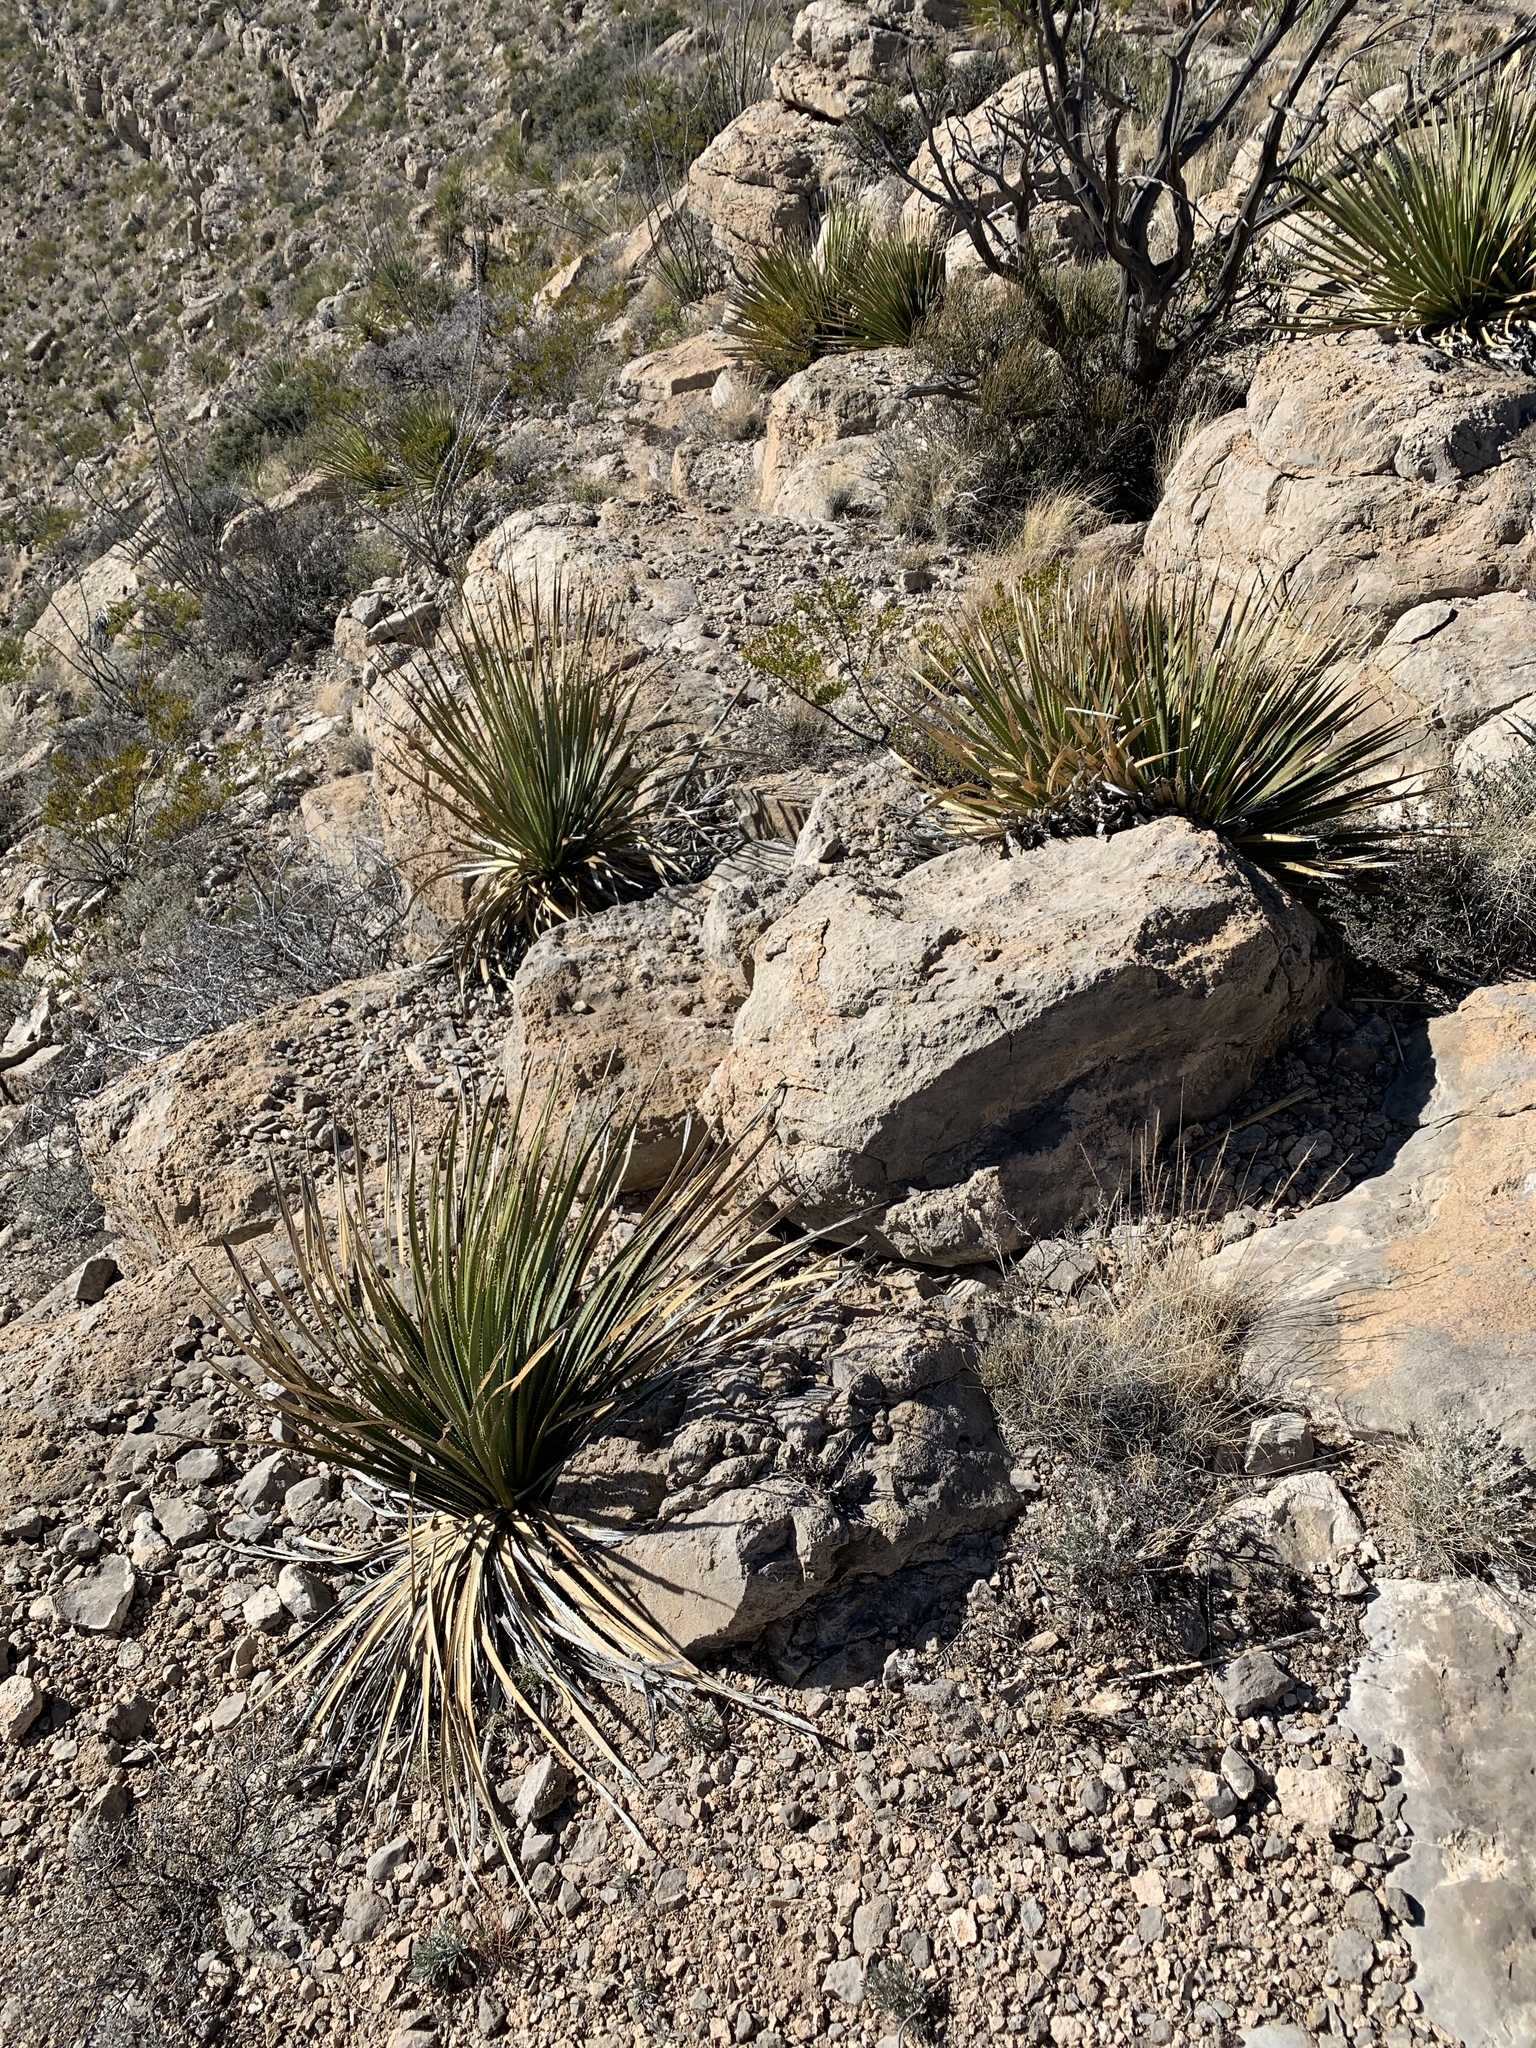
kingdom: Plantae
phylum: Tracheophyta
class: Liliopsida
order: Asparagales
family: Asparagaceae
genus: Dasylirion
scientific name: Dasylirion wheeleri
